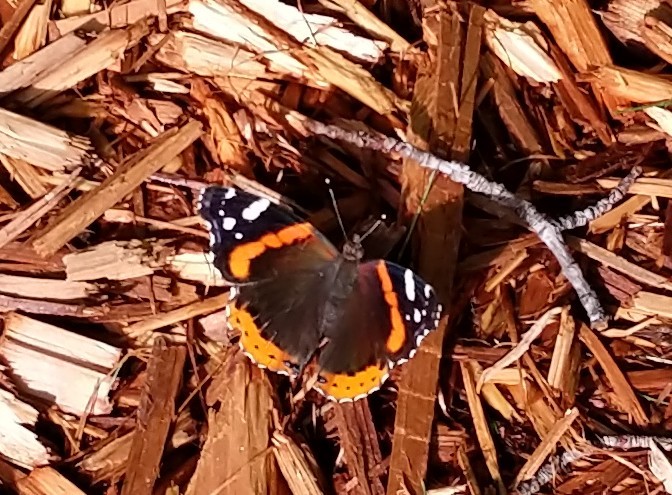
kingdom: Animalia
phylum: Arthropoda
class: Insecta
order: Lepidoptera
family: Nymphalidae
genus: Vanessa
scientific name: Vanessa atalanta
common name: Red admiral
